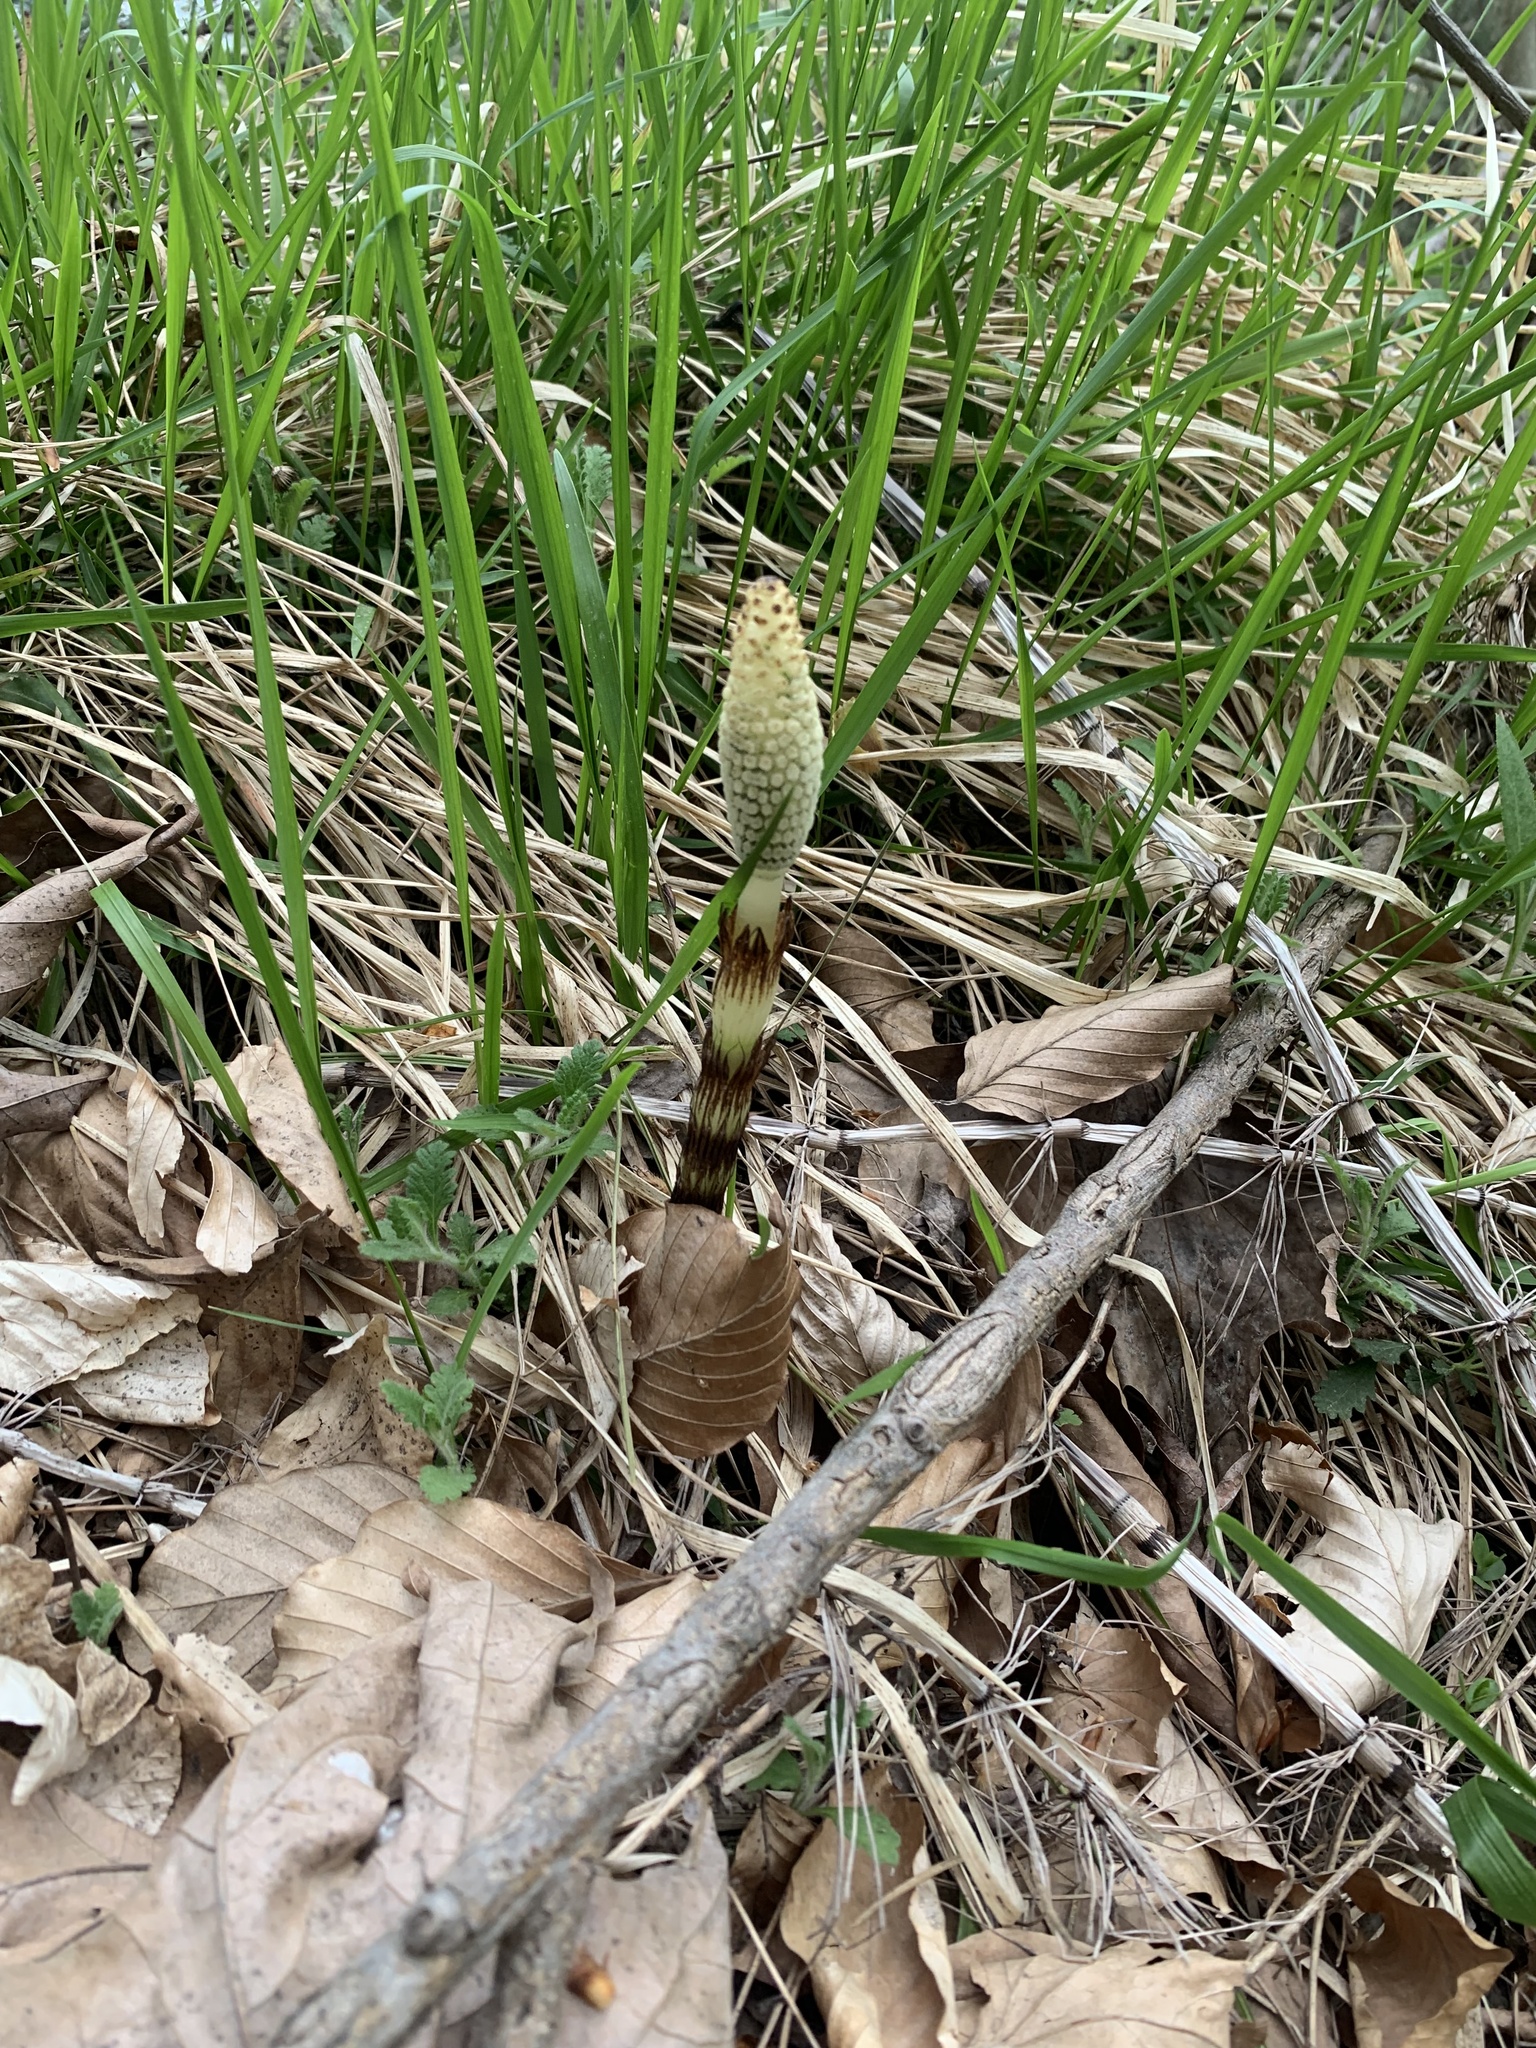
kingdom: Plantae
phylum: Tracheophyta
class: Polypodiopsida
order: Equisetales
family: Equisetaceae
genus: Equisetum
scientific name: Equisetum telmateia
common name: Great horsetail
